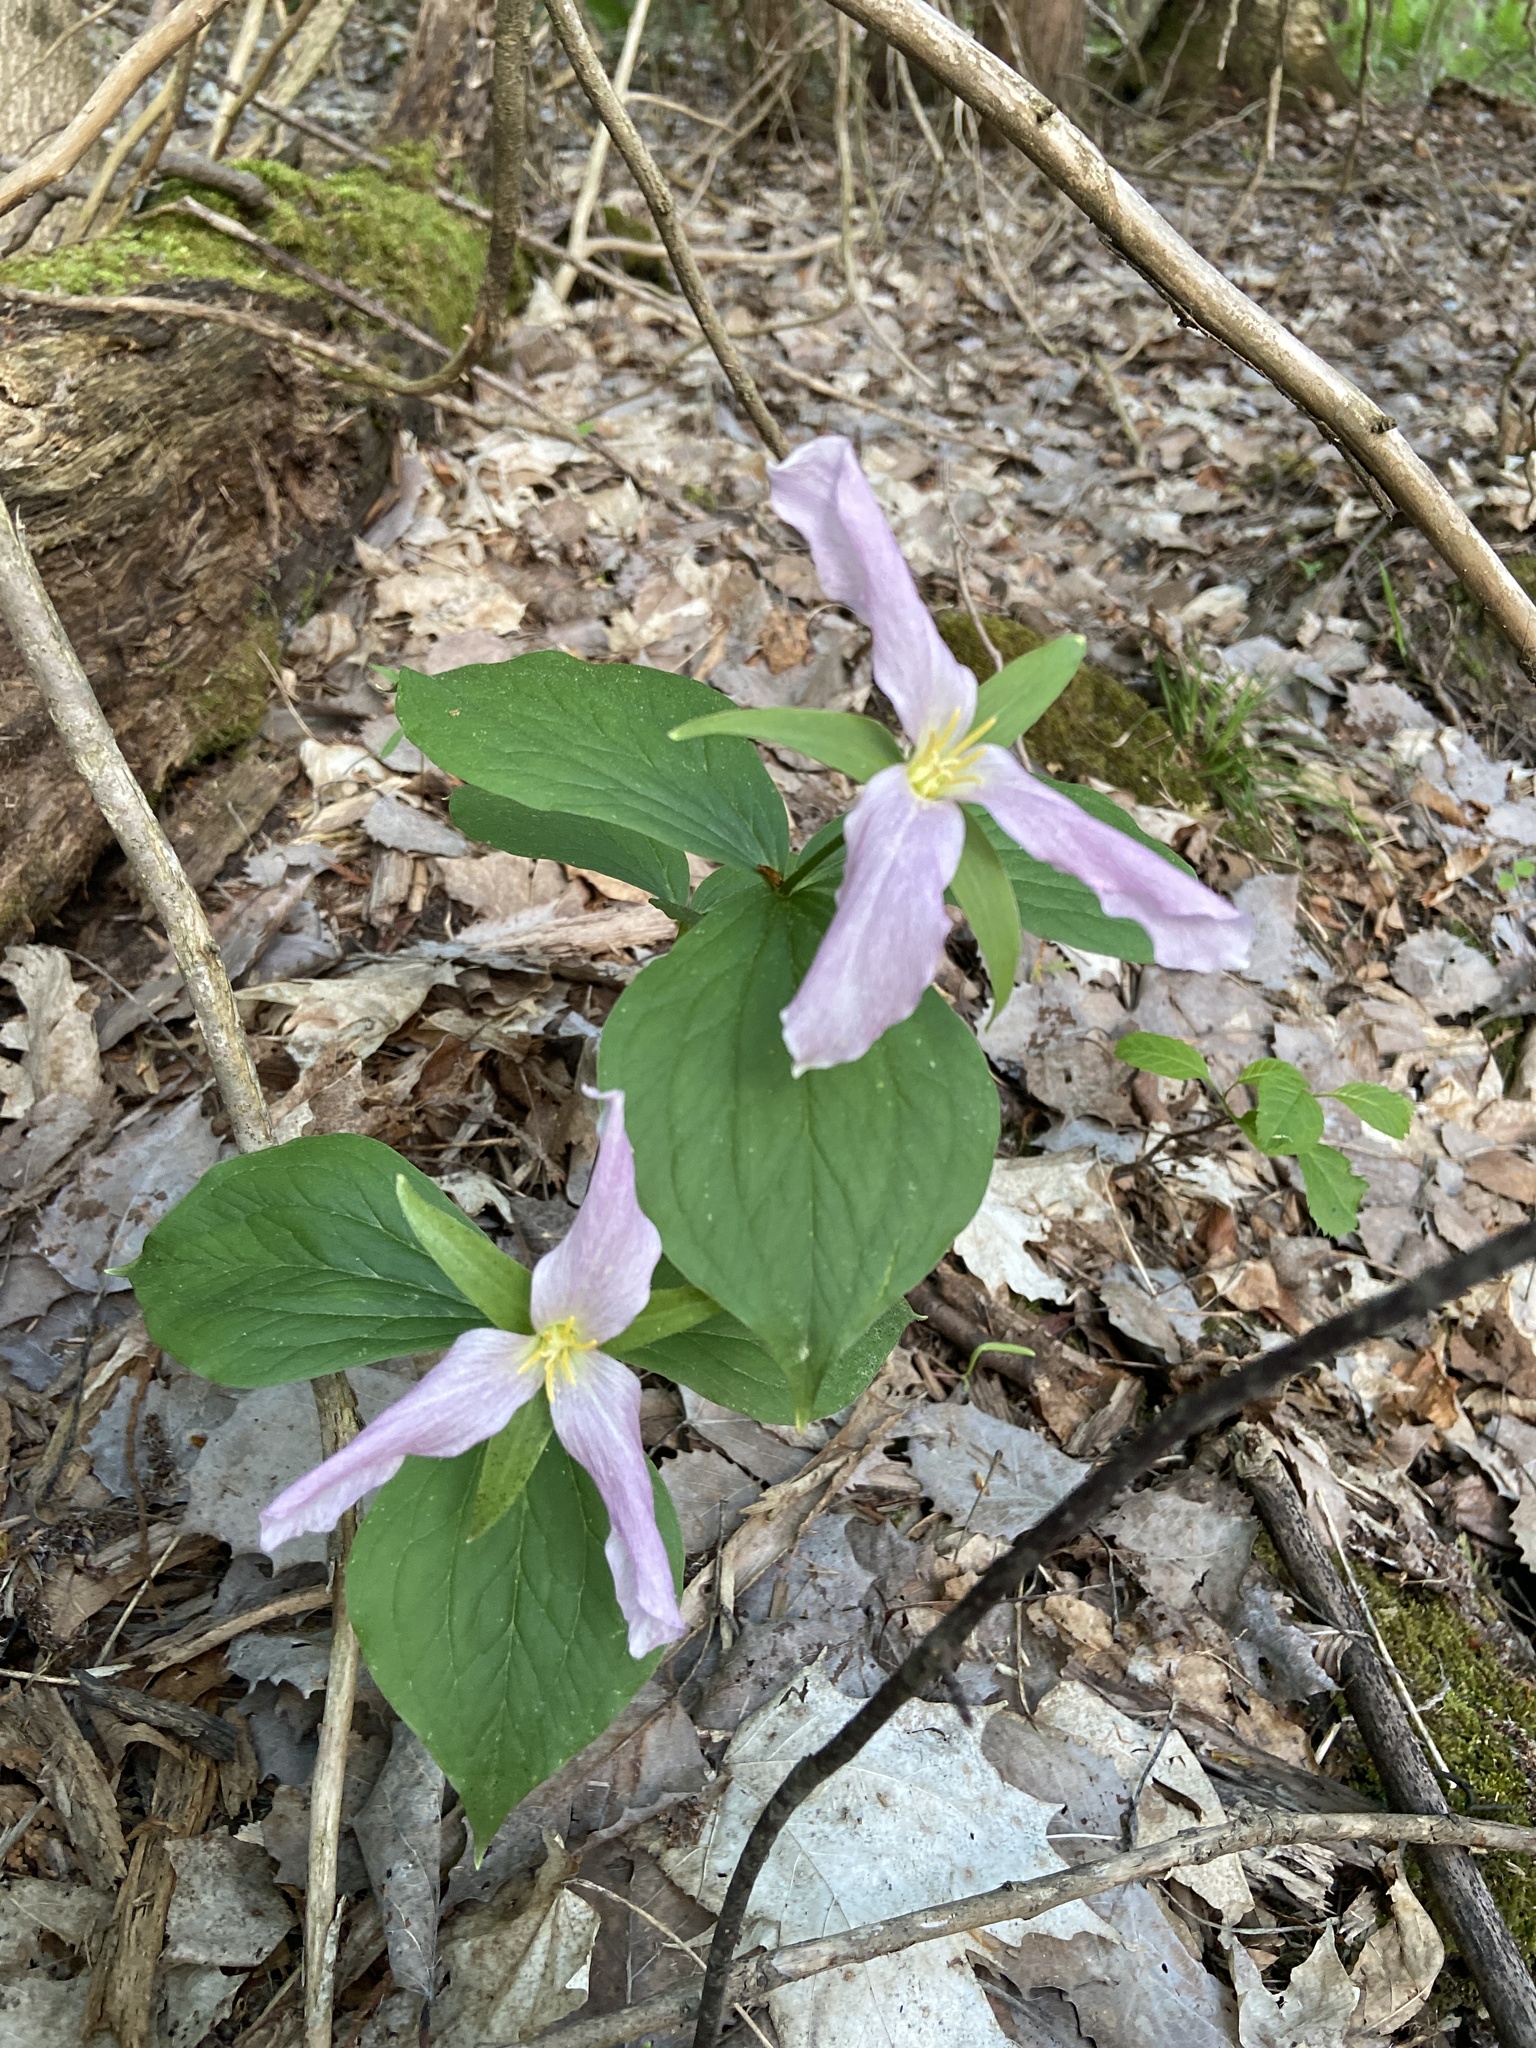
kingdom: Plantae
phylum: Tracheophyta
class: Liliopsida
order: Liliales
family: Melanthiaceae
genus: Trillium
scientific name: Trillium grandiflorum
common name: Great white trillium
